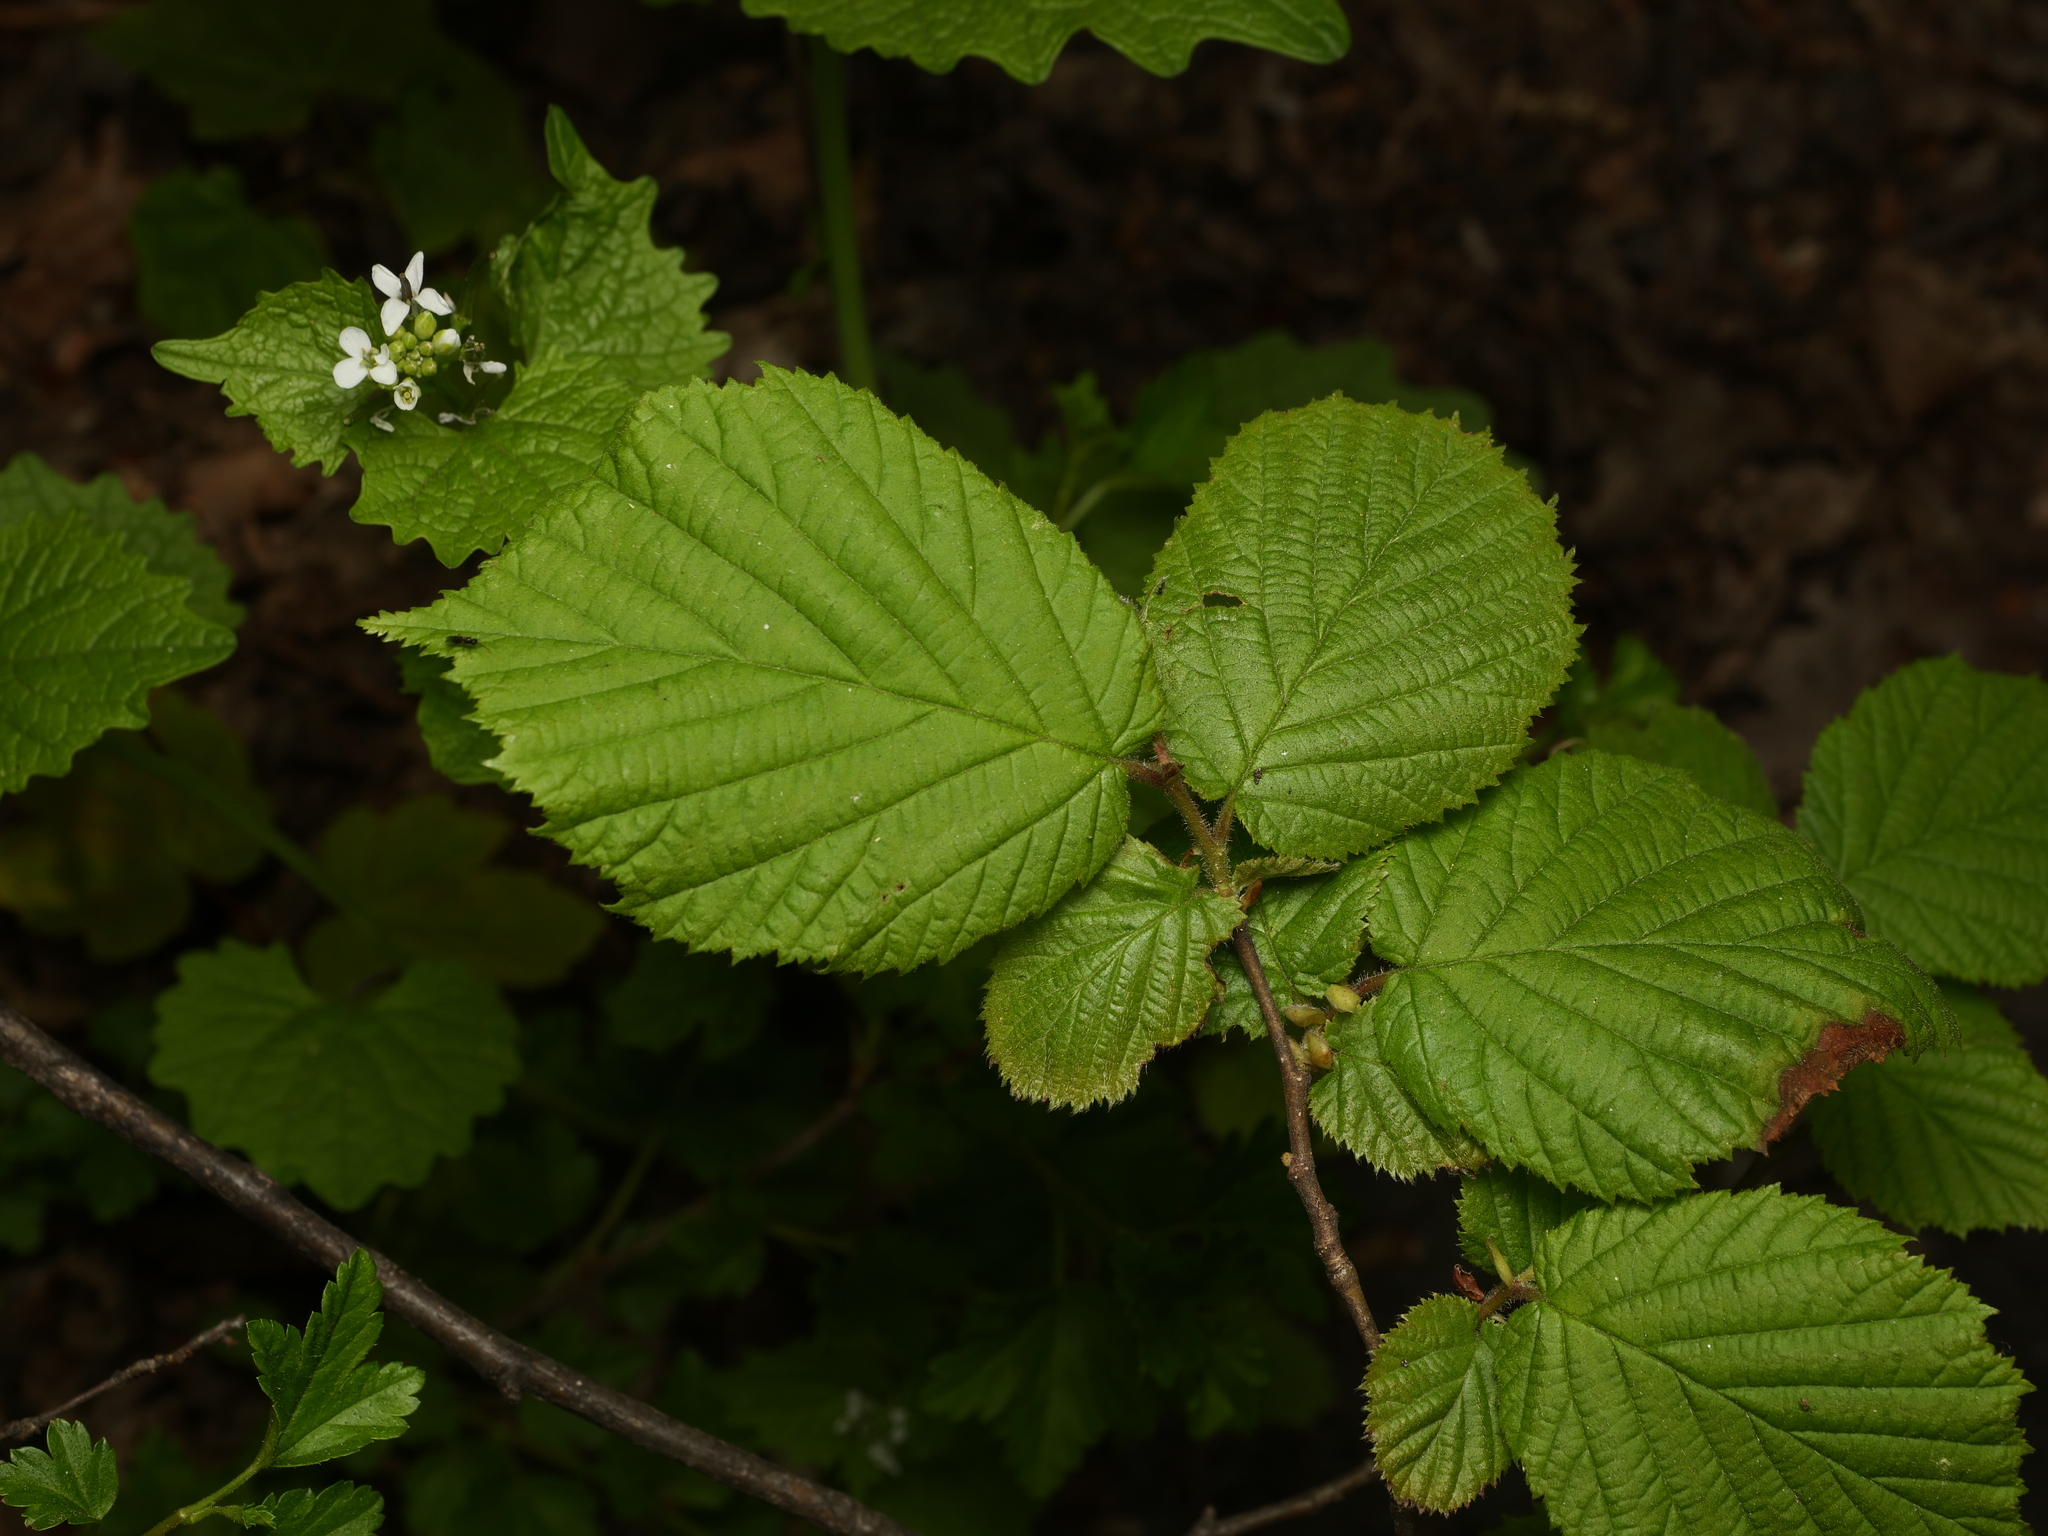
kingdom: Plantae
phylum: Tracheophyta
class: Magnoliopsida
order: Fagales
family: Betulaceae
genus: Corylus
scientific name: Corylus avellana
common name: European hazel
